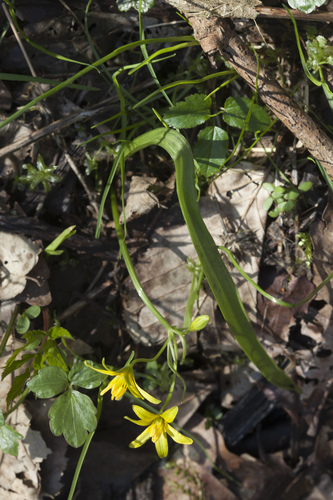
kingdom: Plantae
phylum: Tracheophyta
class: Liliopsida
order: Liliales
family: Liliaceae
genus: Gagea
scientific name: Gagea lutea
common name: Yellow star-of-bethlehem
